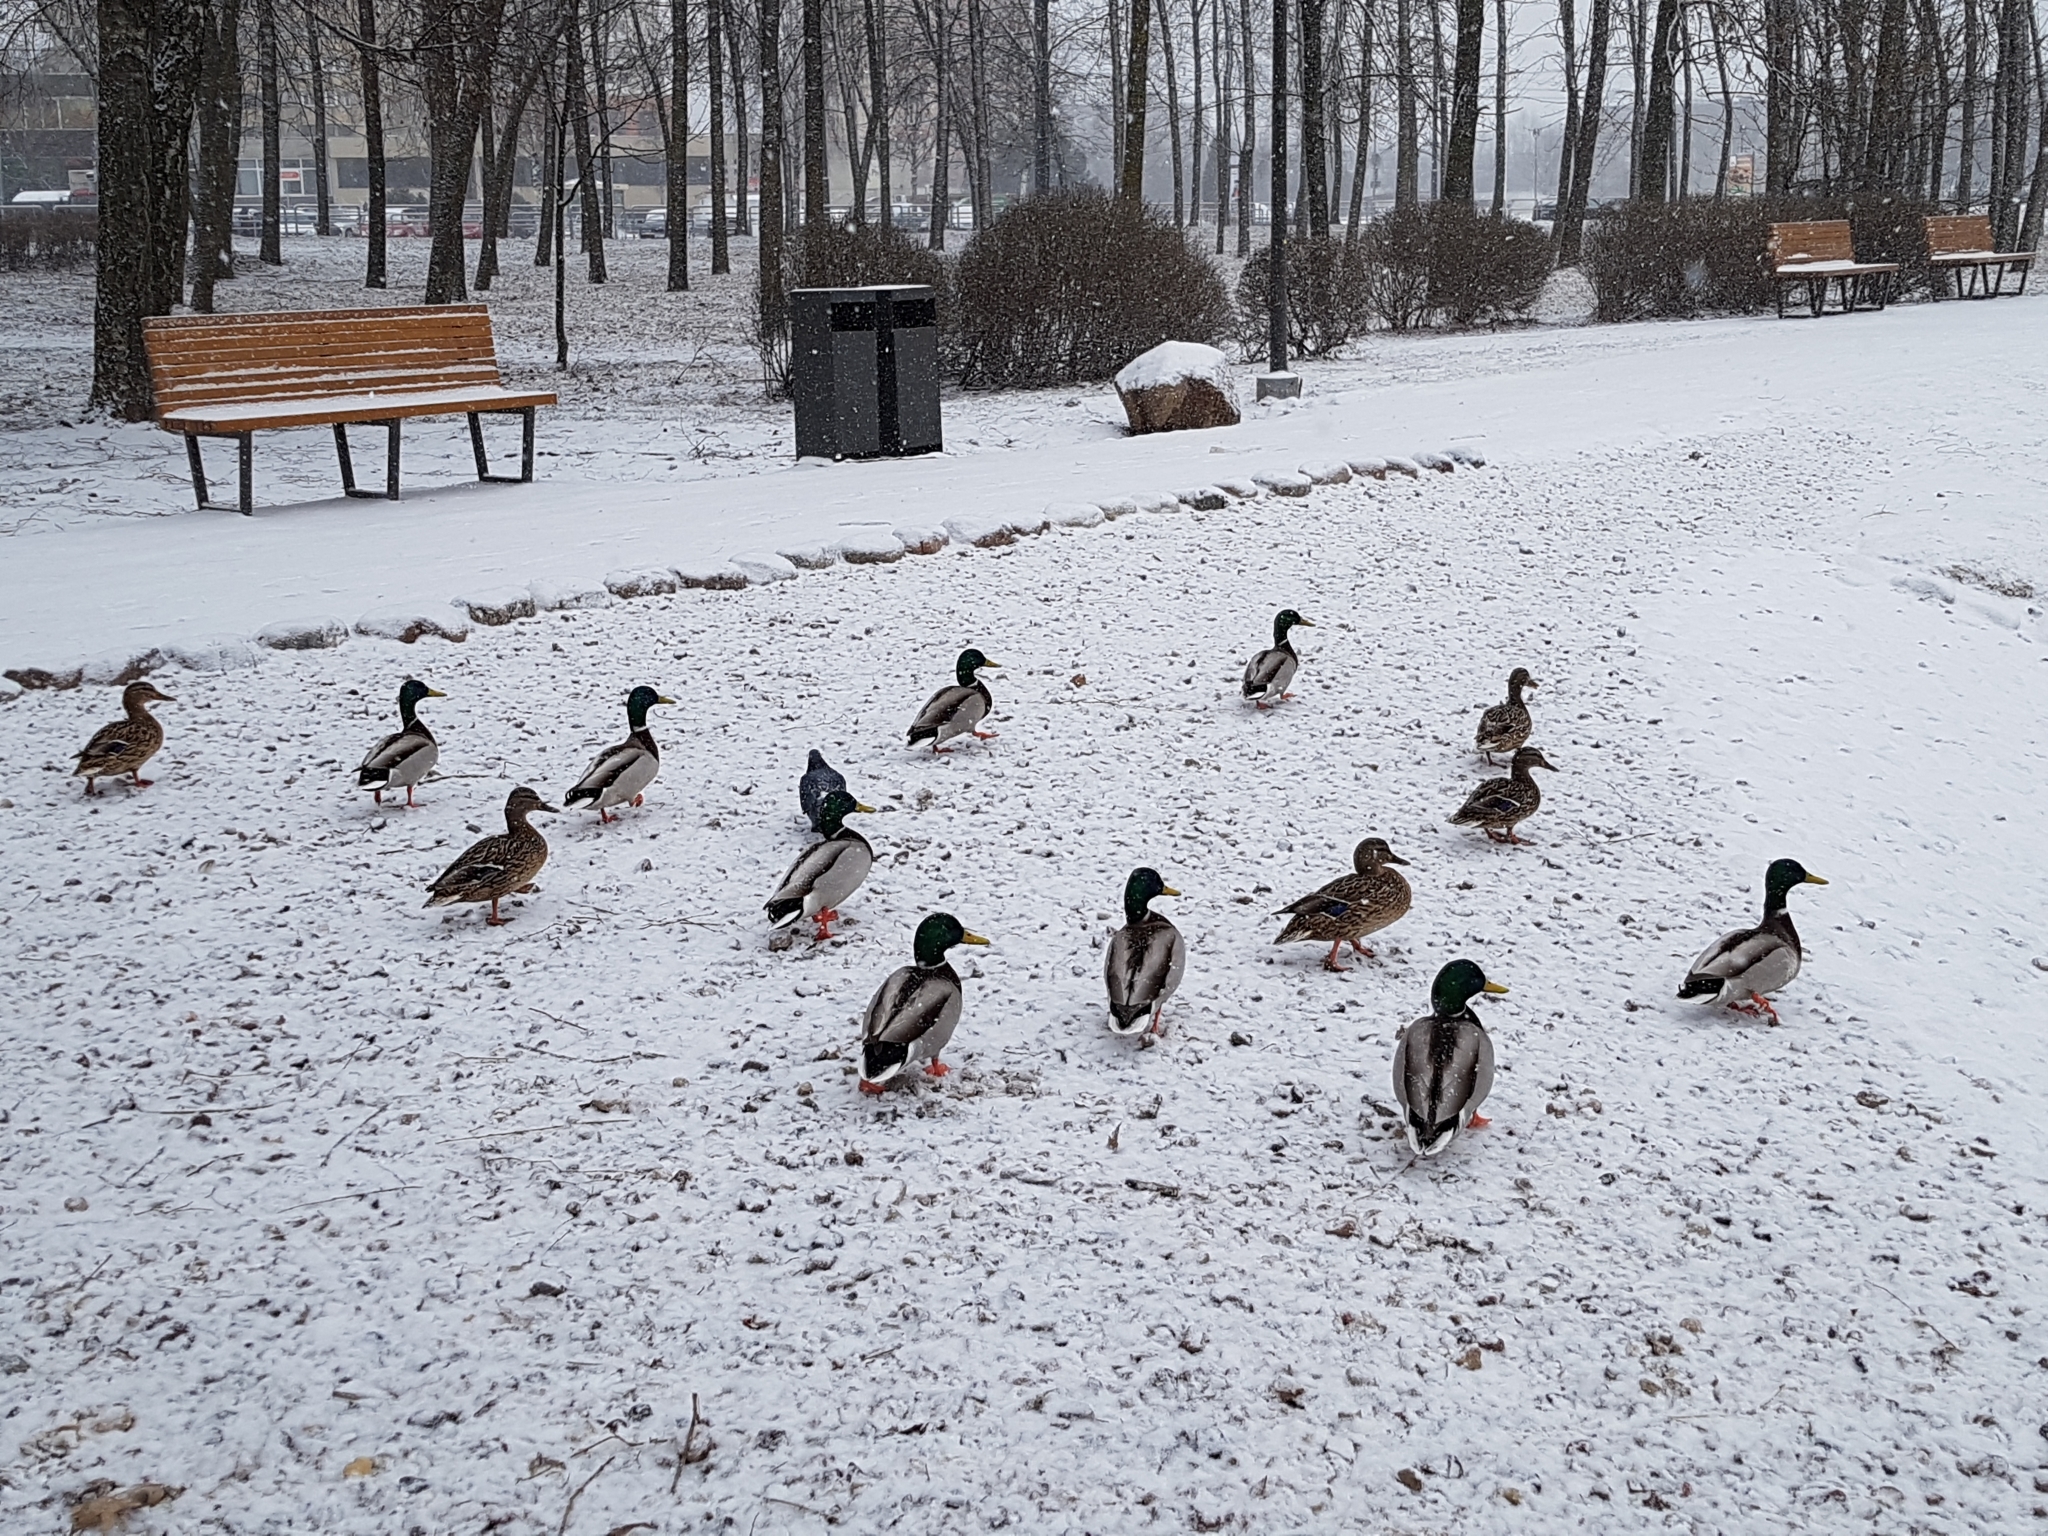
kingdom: Animalia
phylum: Chordata
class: Aves
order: Anseriformes
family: Anatidae
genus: Anas
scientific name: Anas platyrhynchos
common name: Mallard
